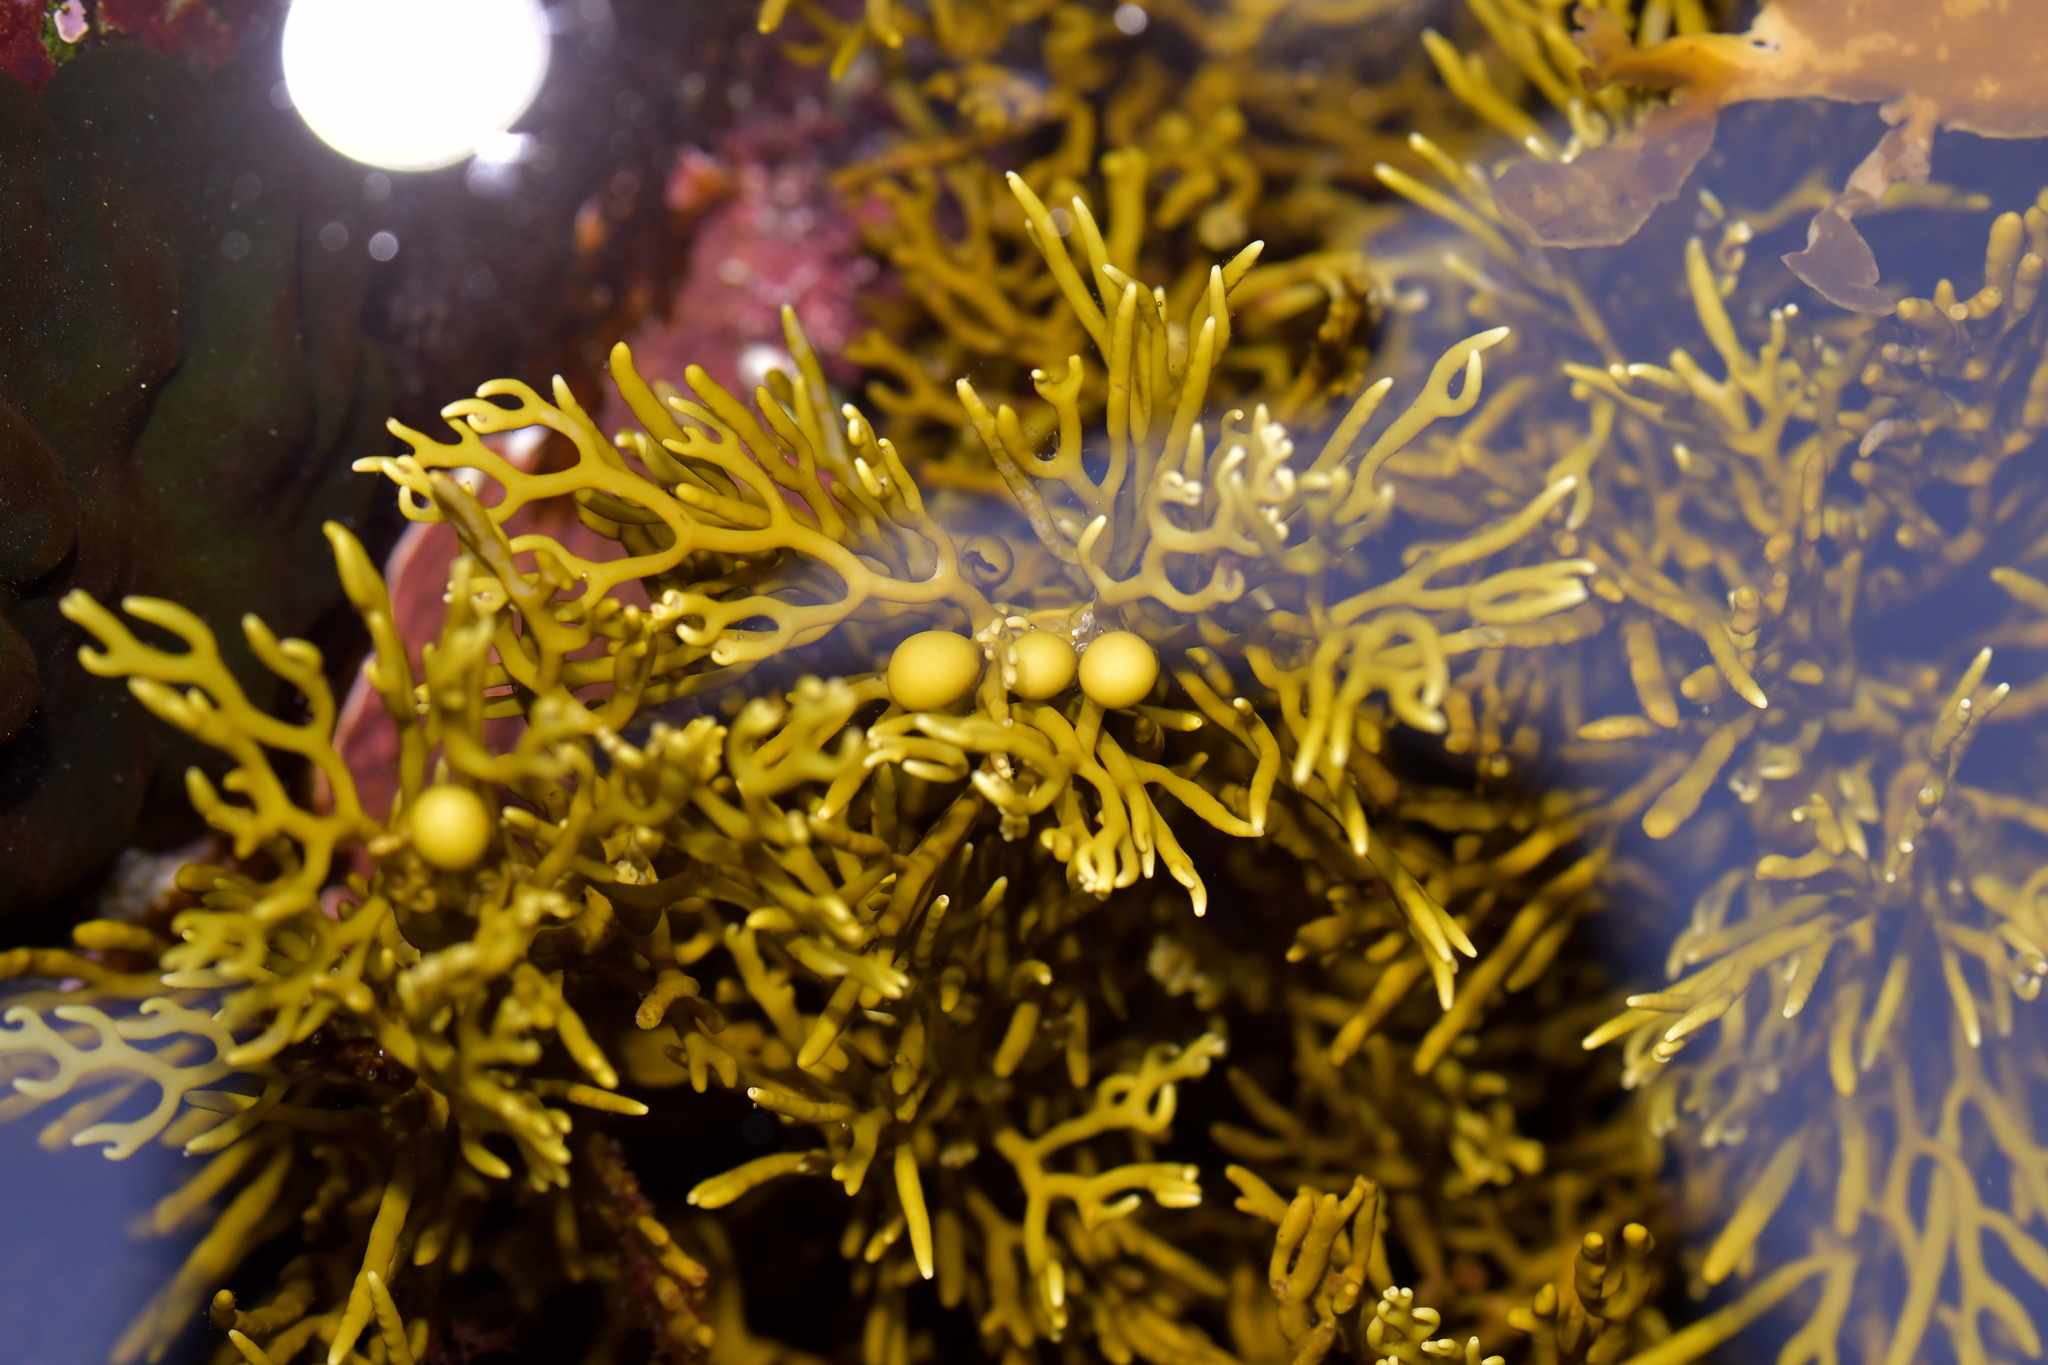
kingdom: Chromista
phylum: Ochrophyta
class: Phaeophyceae
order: Fucales
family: Sargassaceae
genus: Cystophora
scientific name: Cystophora scalaris
